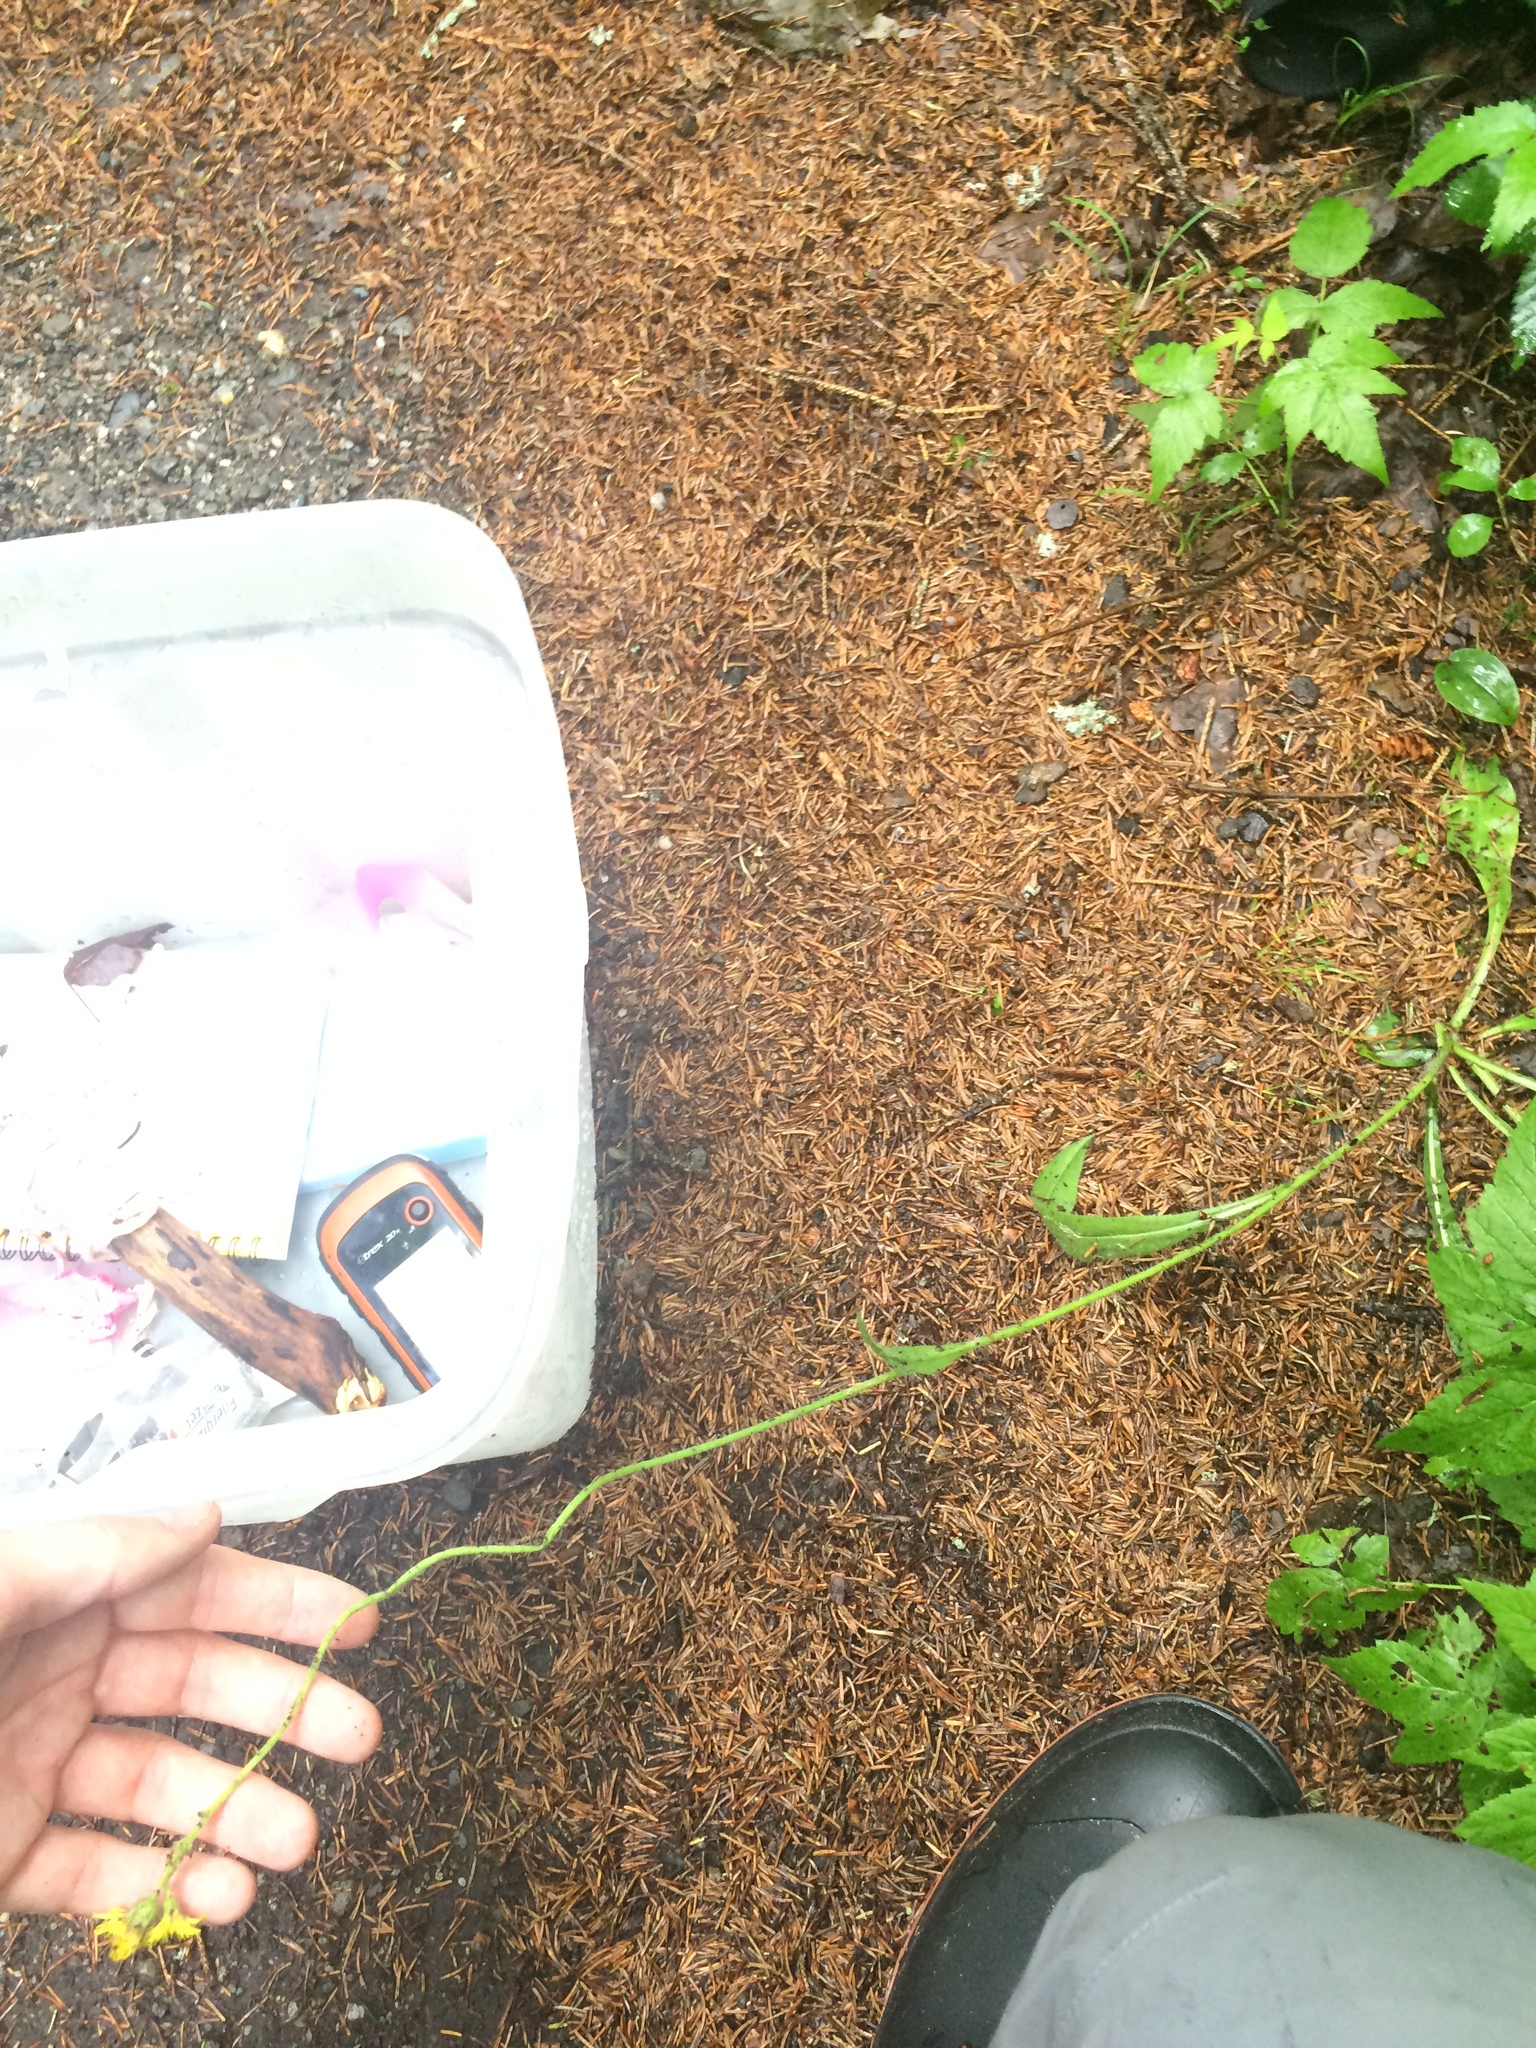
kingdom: Plantae
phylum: Tracheophyta
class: Magnoliopsida
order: Asterales
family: Asteraceae
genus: Pilosella
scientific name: Pilosella flagellaris
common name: Flagellate hawkweed
